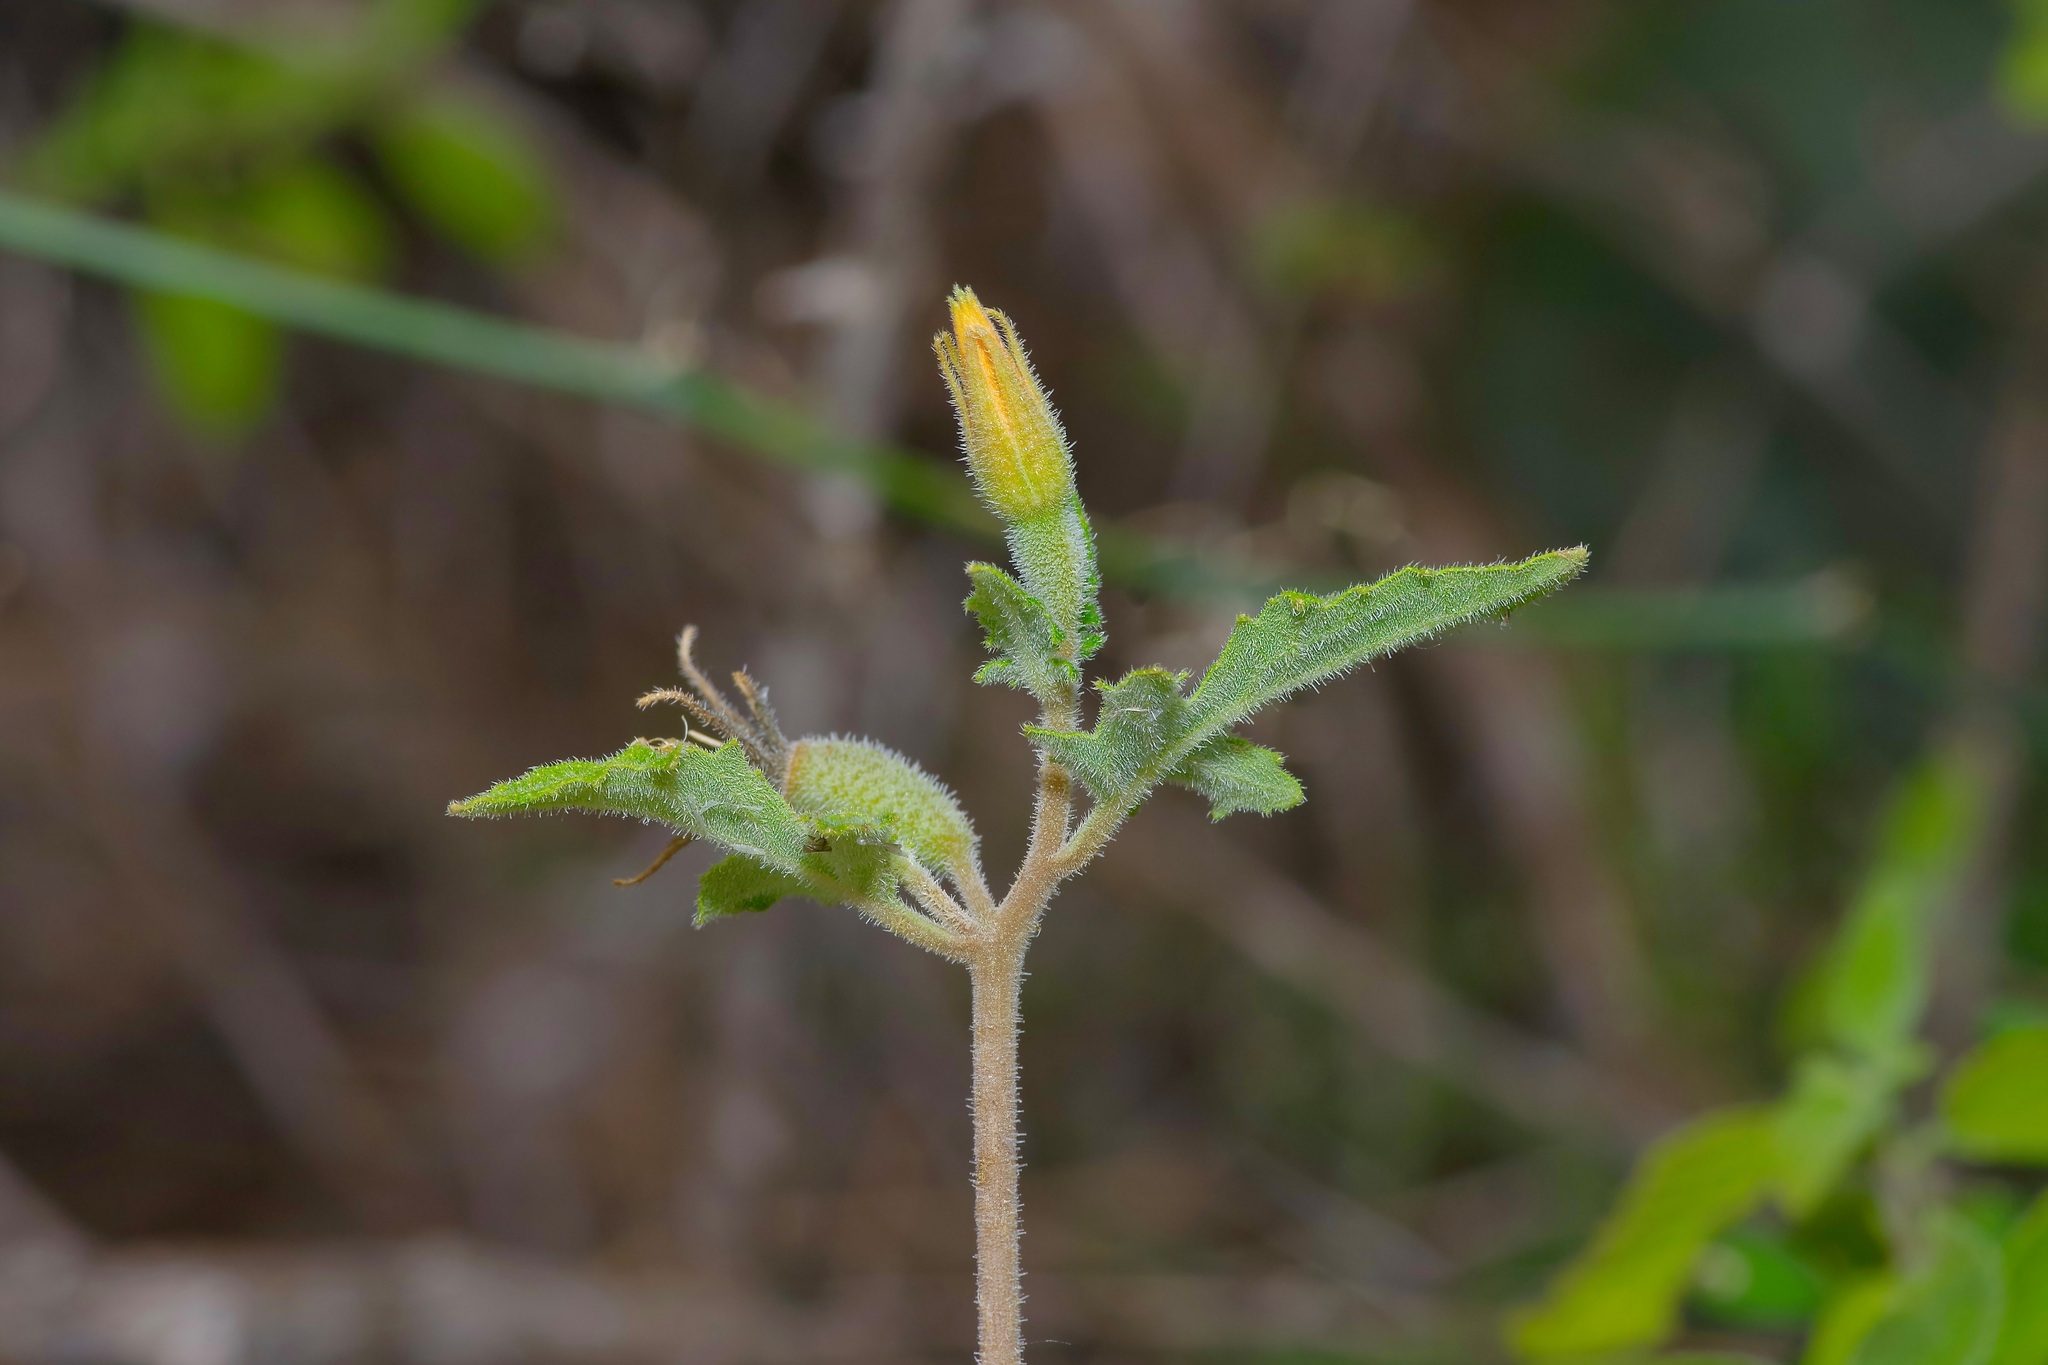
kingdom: Plantae
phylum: Tracheophyta
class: Magnoliopsida
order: Cornales
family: Loasaceae
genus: Mentzelia
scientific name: Mentzelia oligosperma
